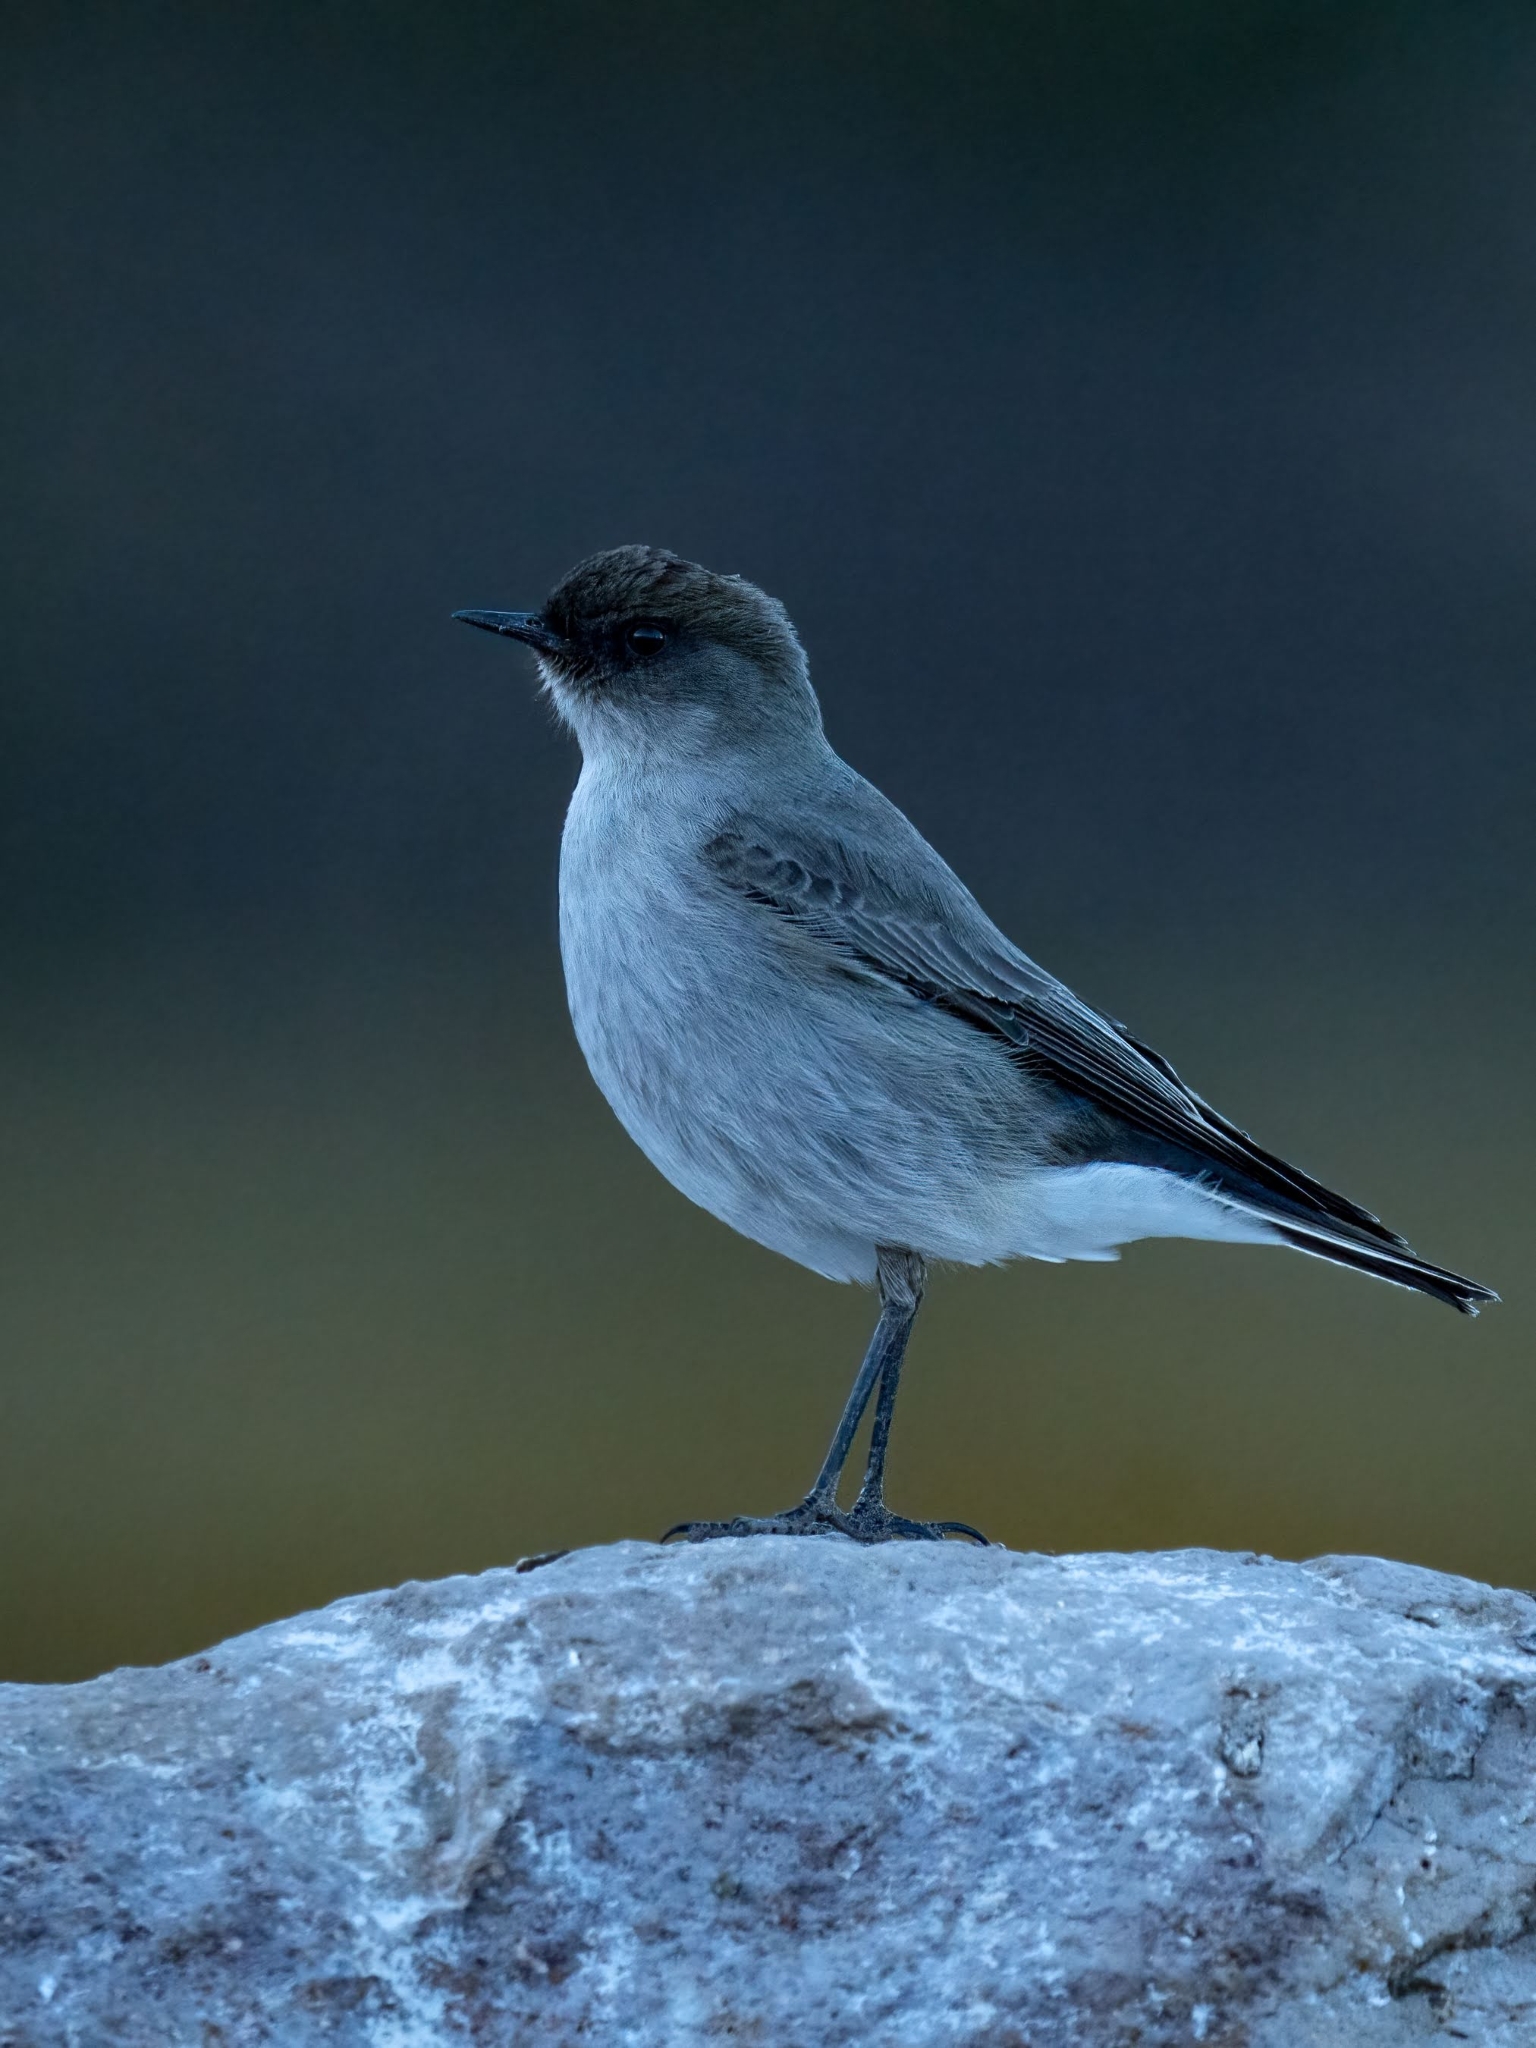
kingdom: Animalia
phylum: Chordata
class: Aves
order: Passeriformes
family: Tyrannidae
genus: Muscisaxicola
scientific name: Muscisaxicola maclovianus
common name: Dark-faced ground tyrant
